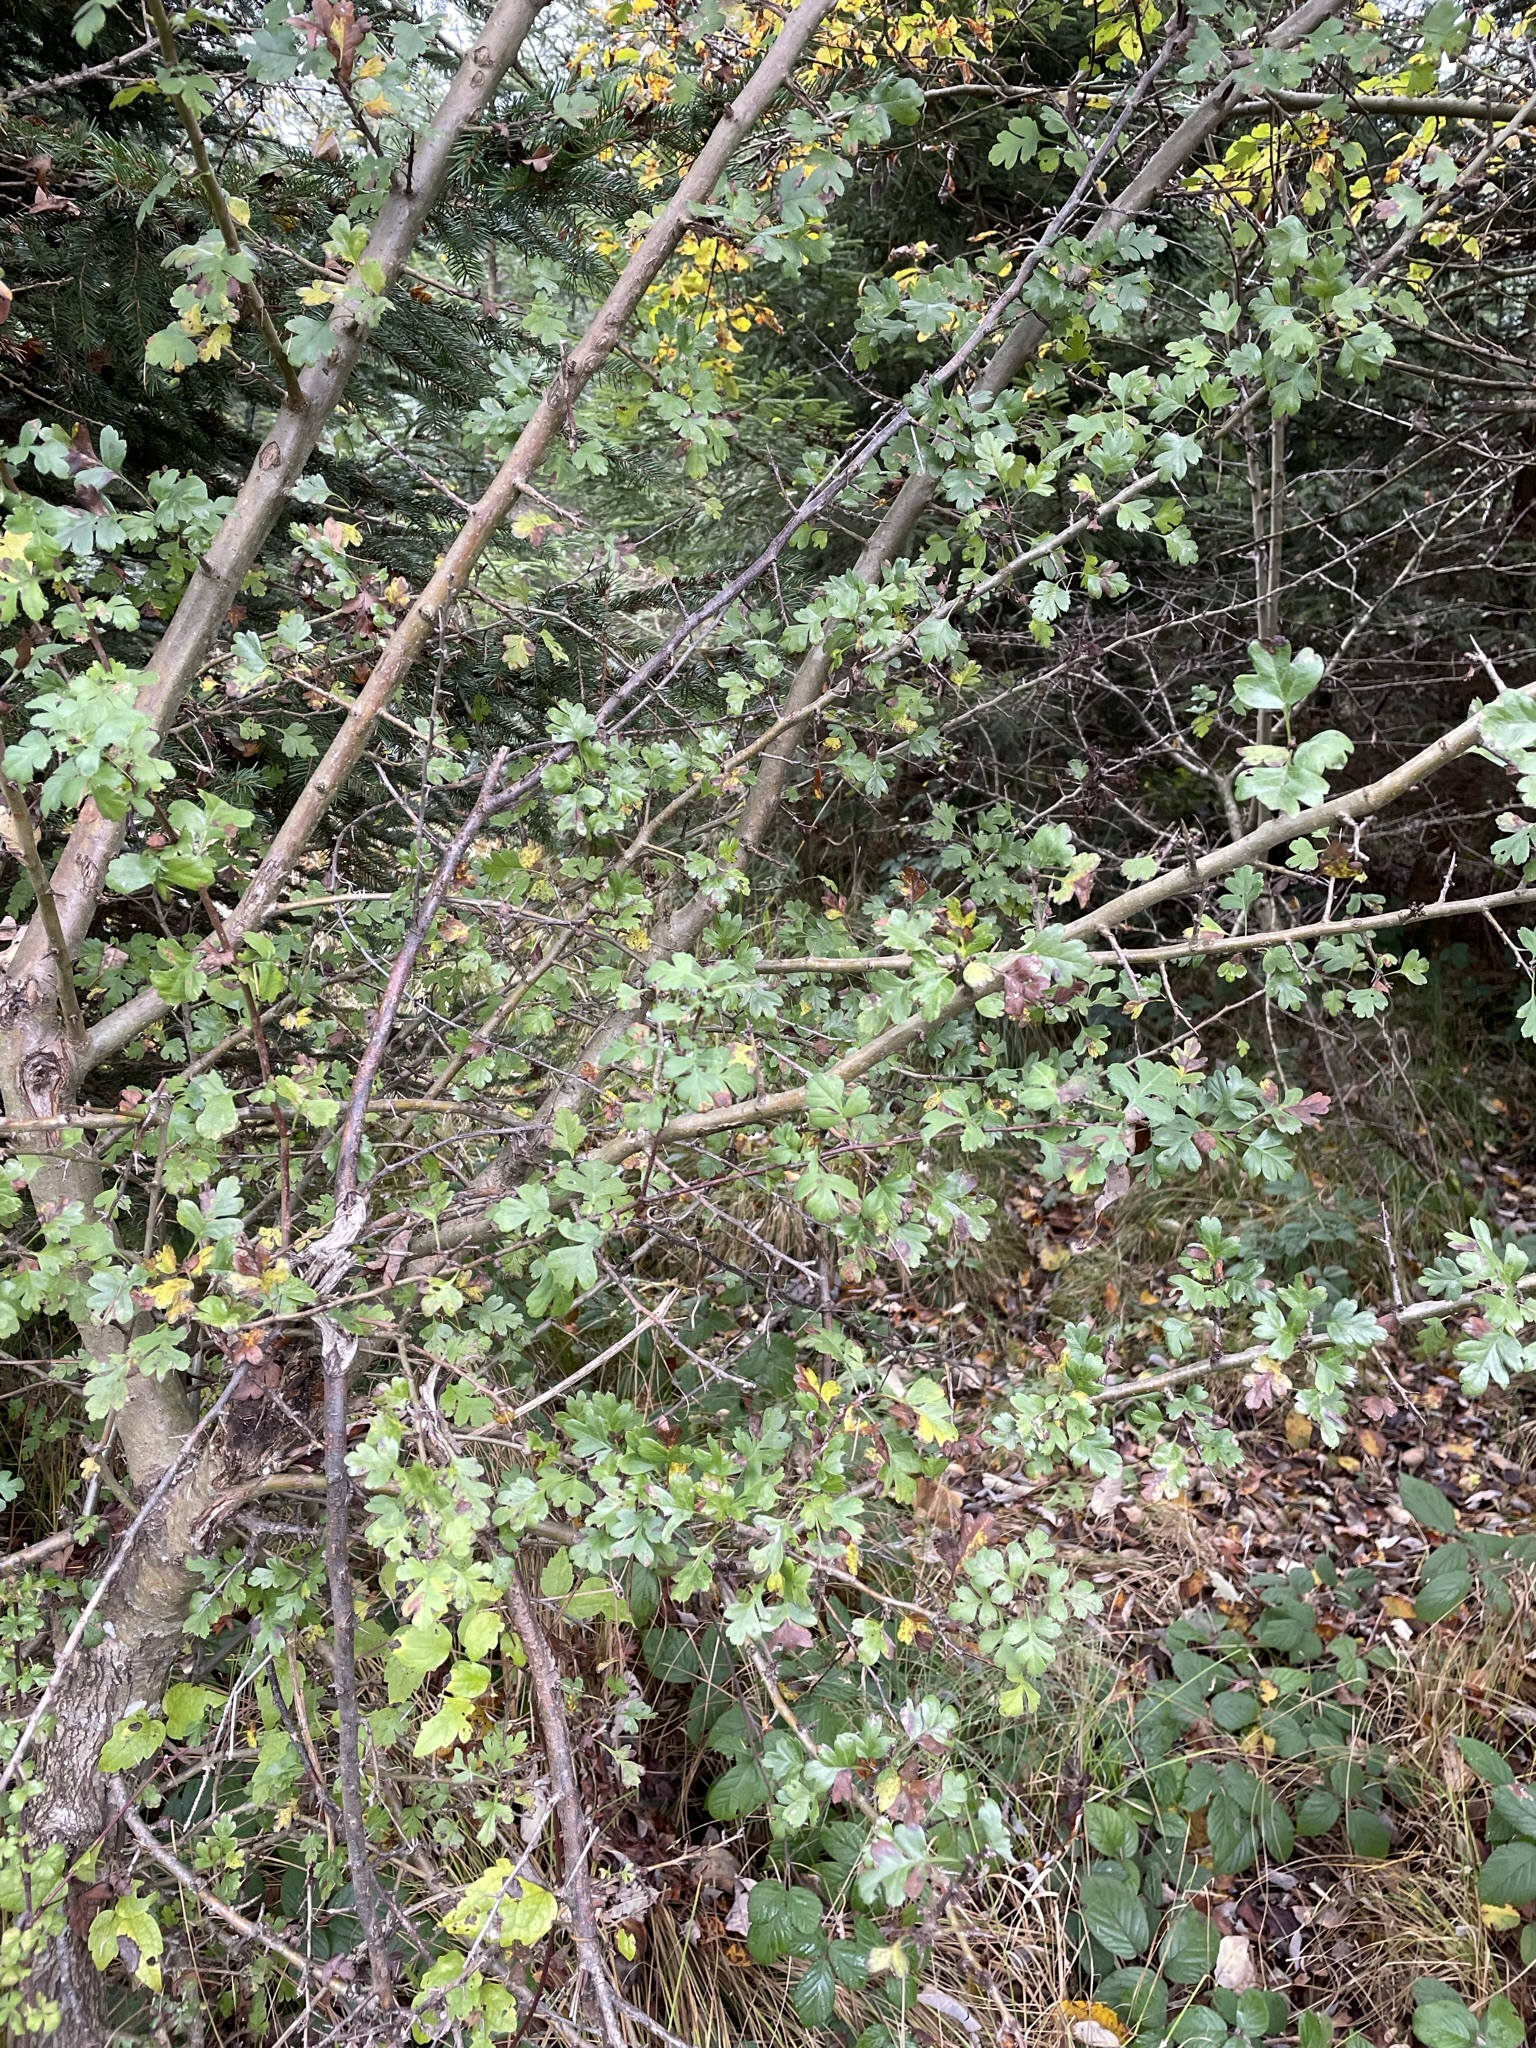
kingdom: Plantae
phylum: Tracheophyta
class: Magnoliopsida
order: Rosales
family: Rosaceae
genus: Crataegus
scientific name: Crataegus monogyna
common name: Hawthorn
